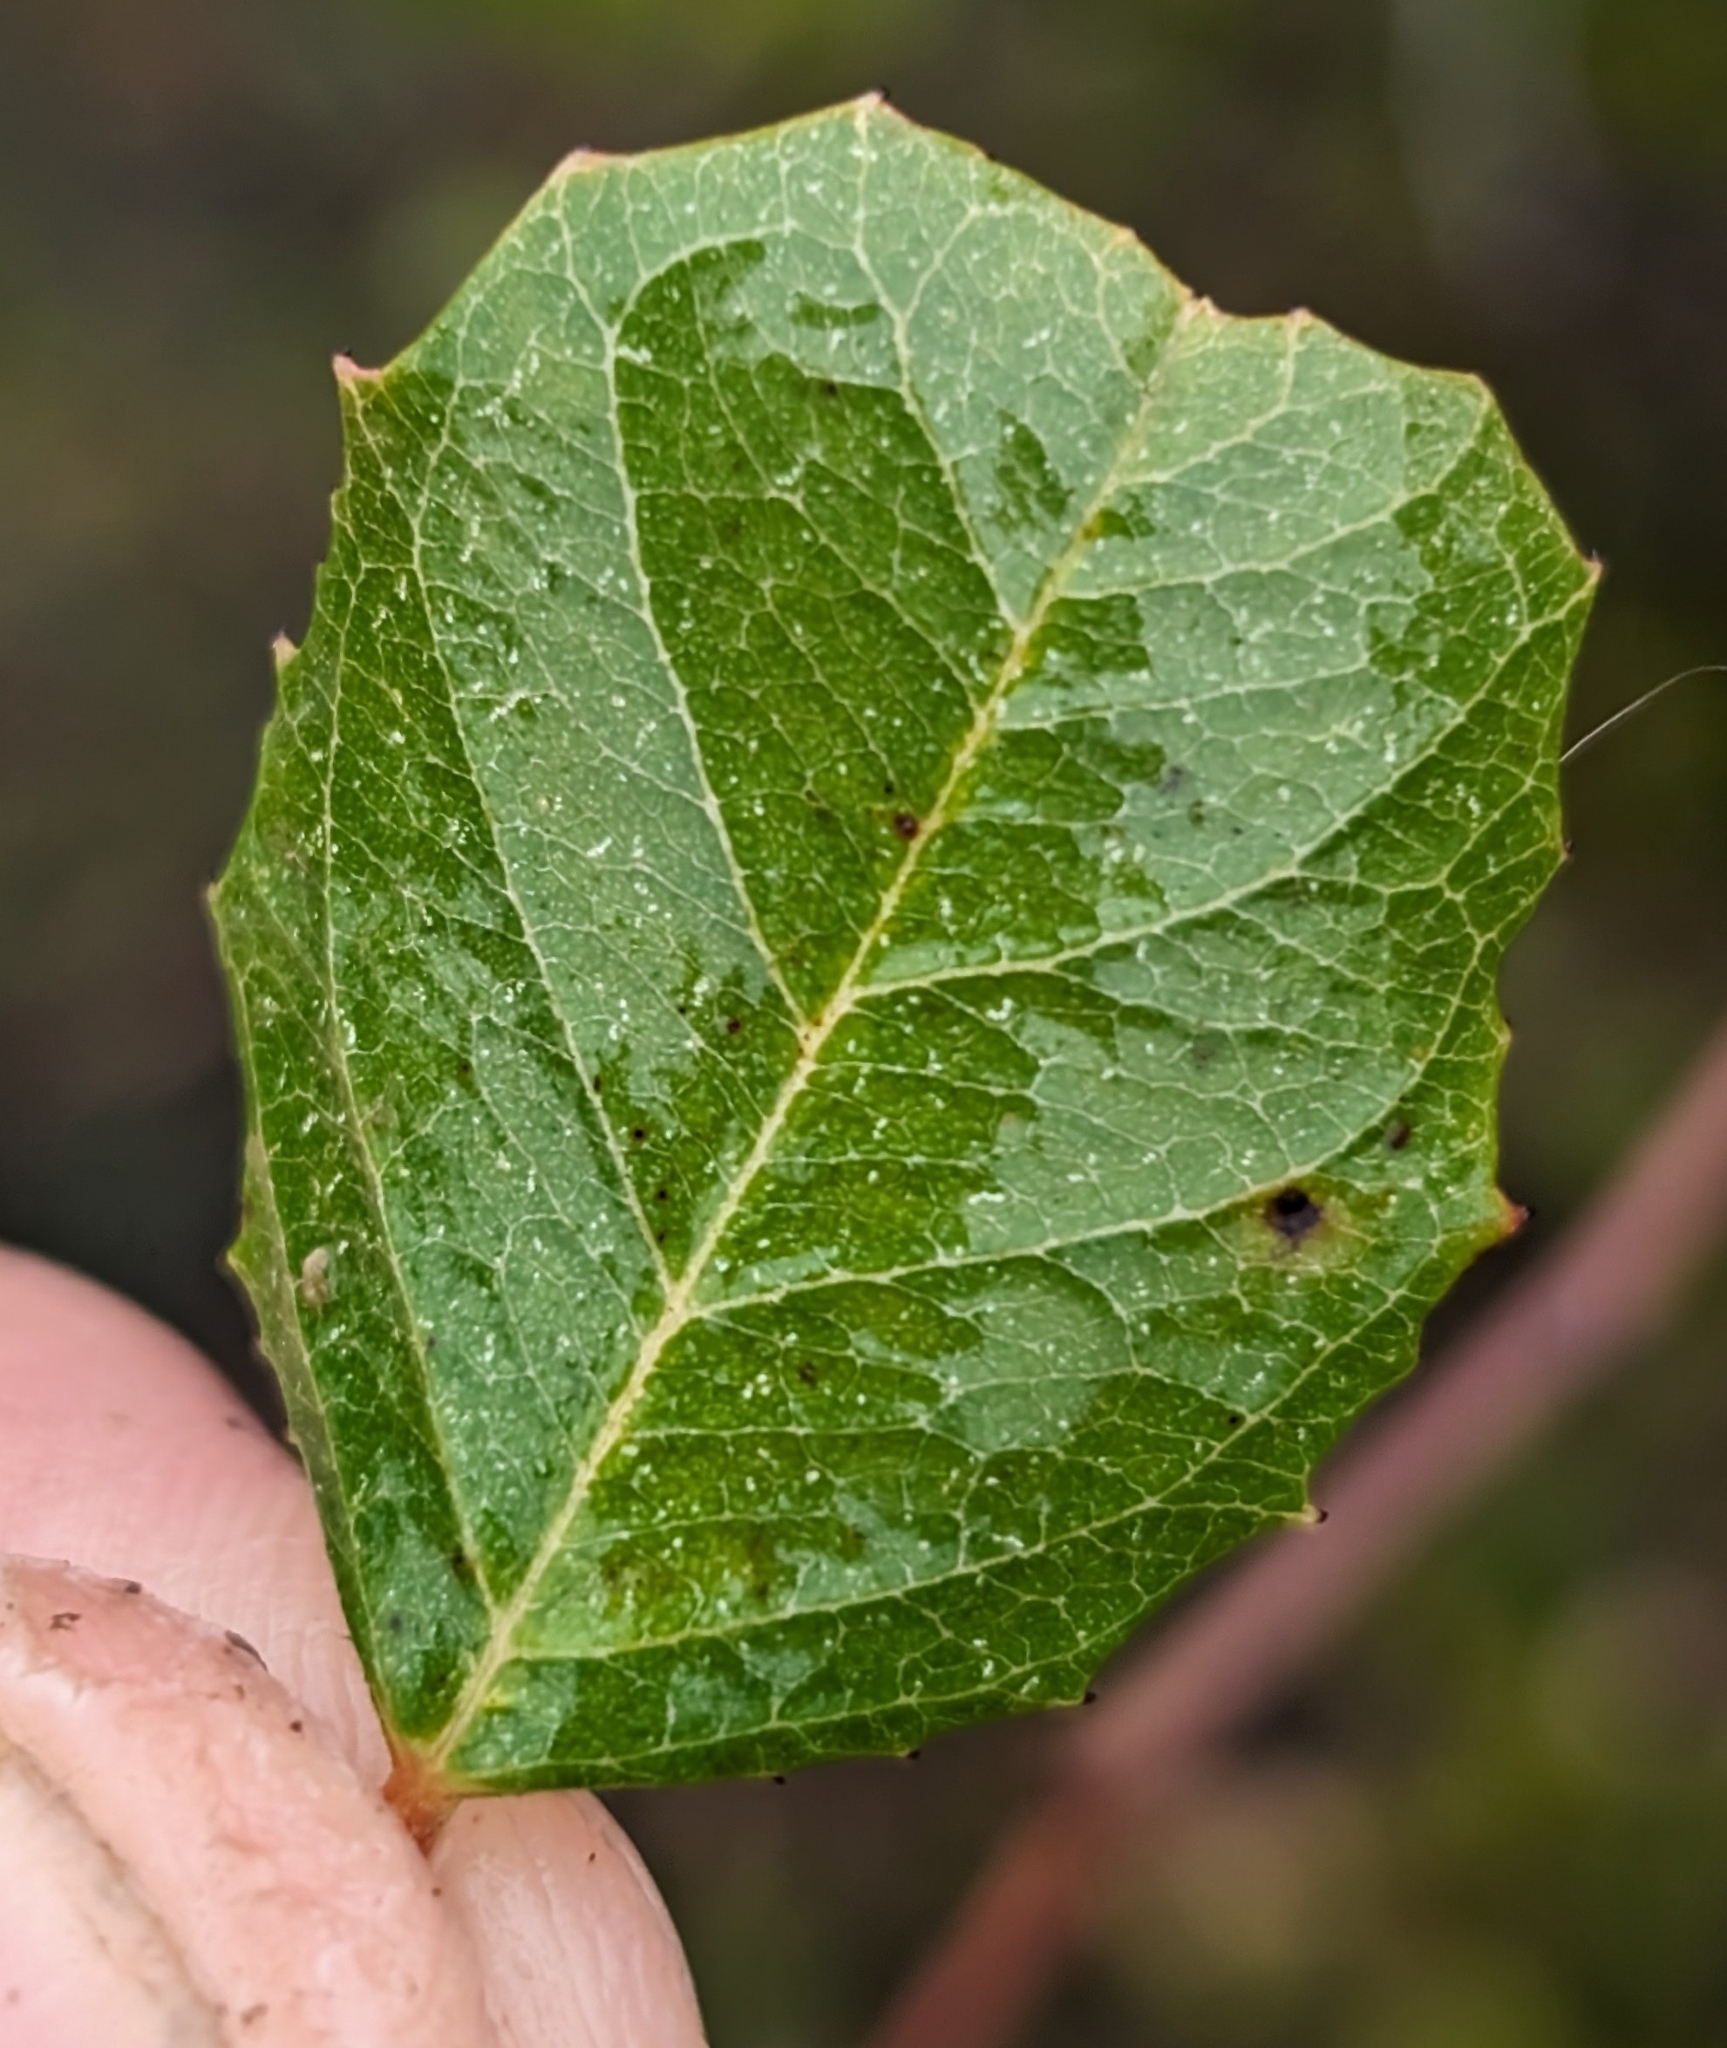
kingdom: Plantae
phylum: Tracheophyta
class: Magnoliopsida
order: Rosales
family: Rhamnaceae
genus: Endotropis
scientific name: Endotropis crocea
